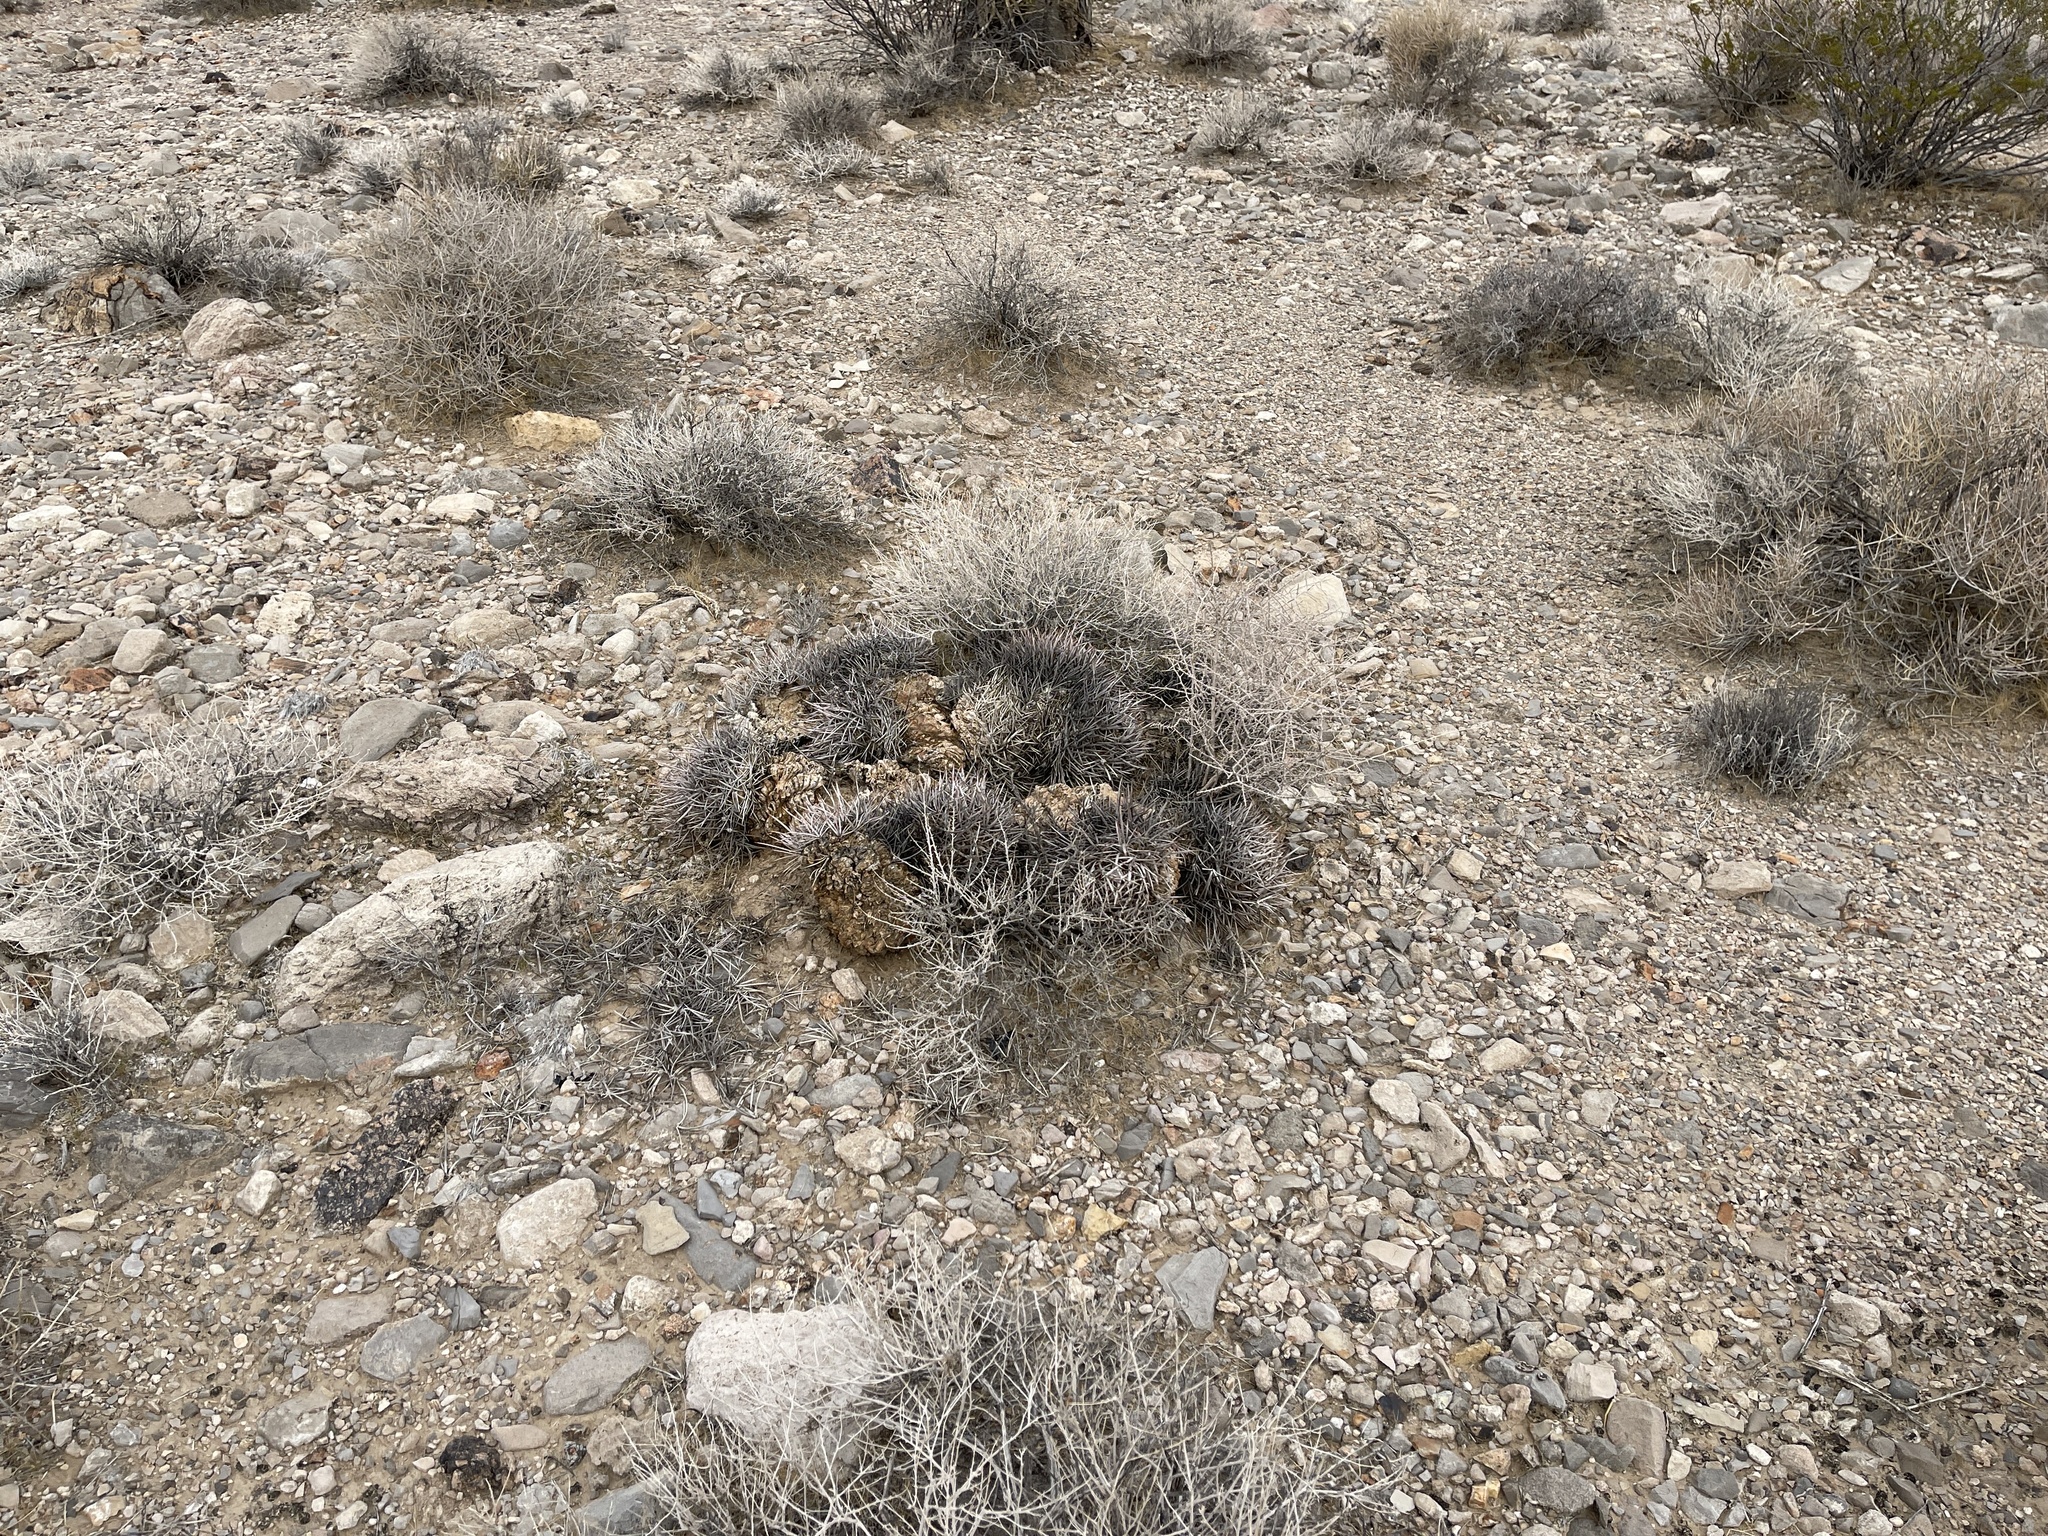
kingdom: Plantae
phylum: Tracheophyta
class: Magnoliopsida
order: Caryophyllales
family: Cactaceae
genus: Echinocactus
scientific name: Echinocactus polycephalus
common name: Cottontop cactus
